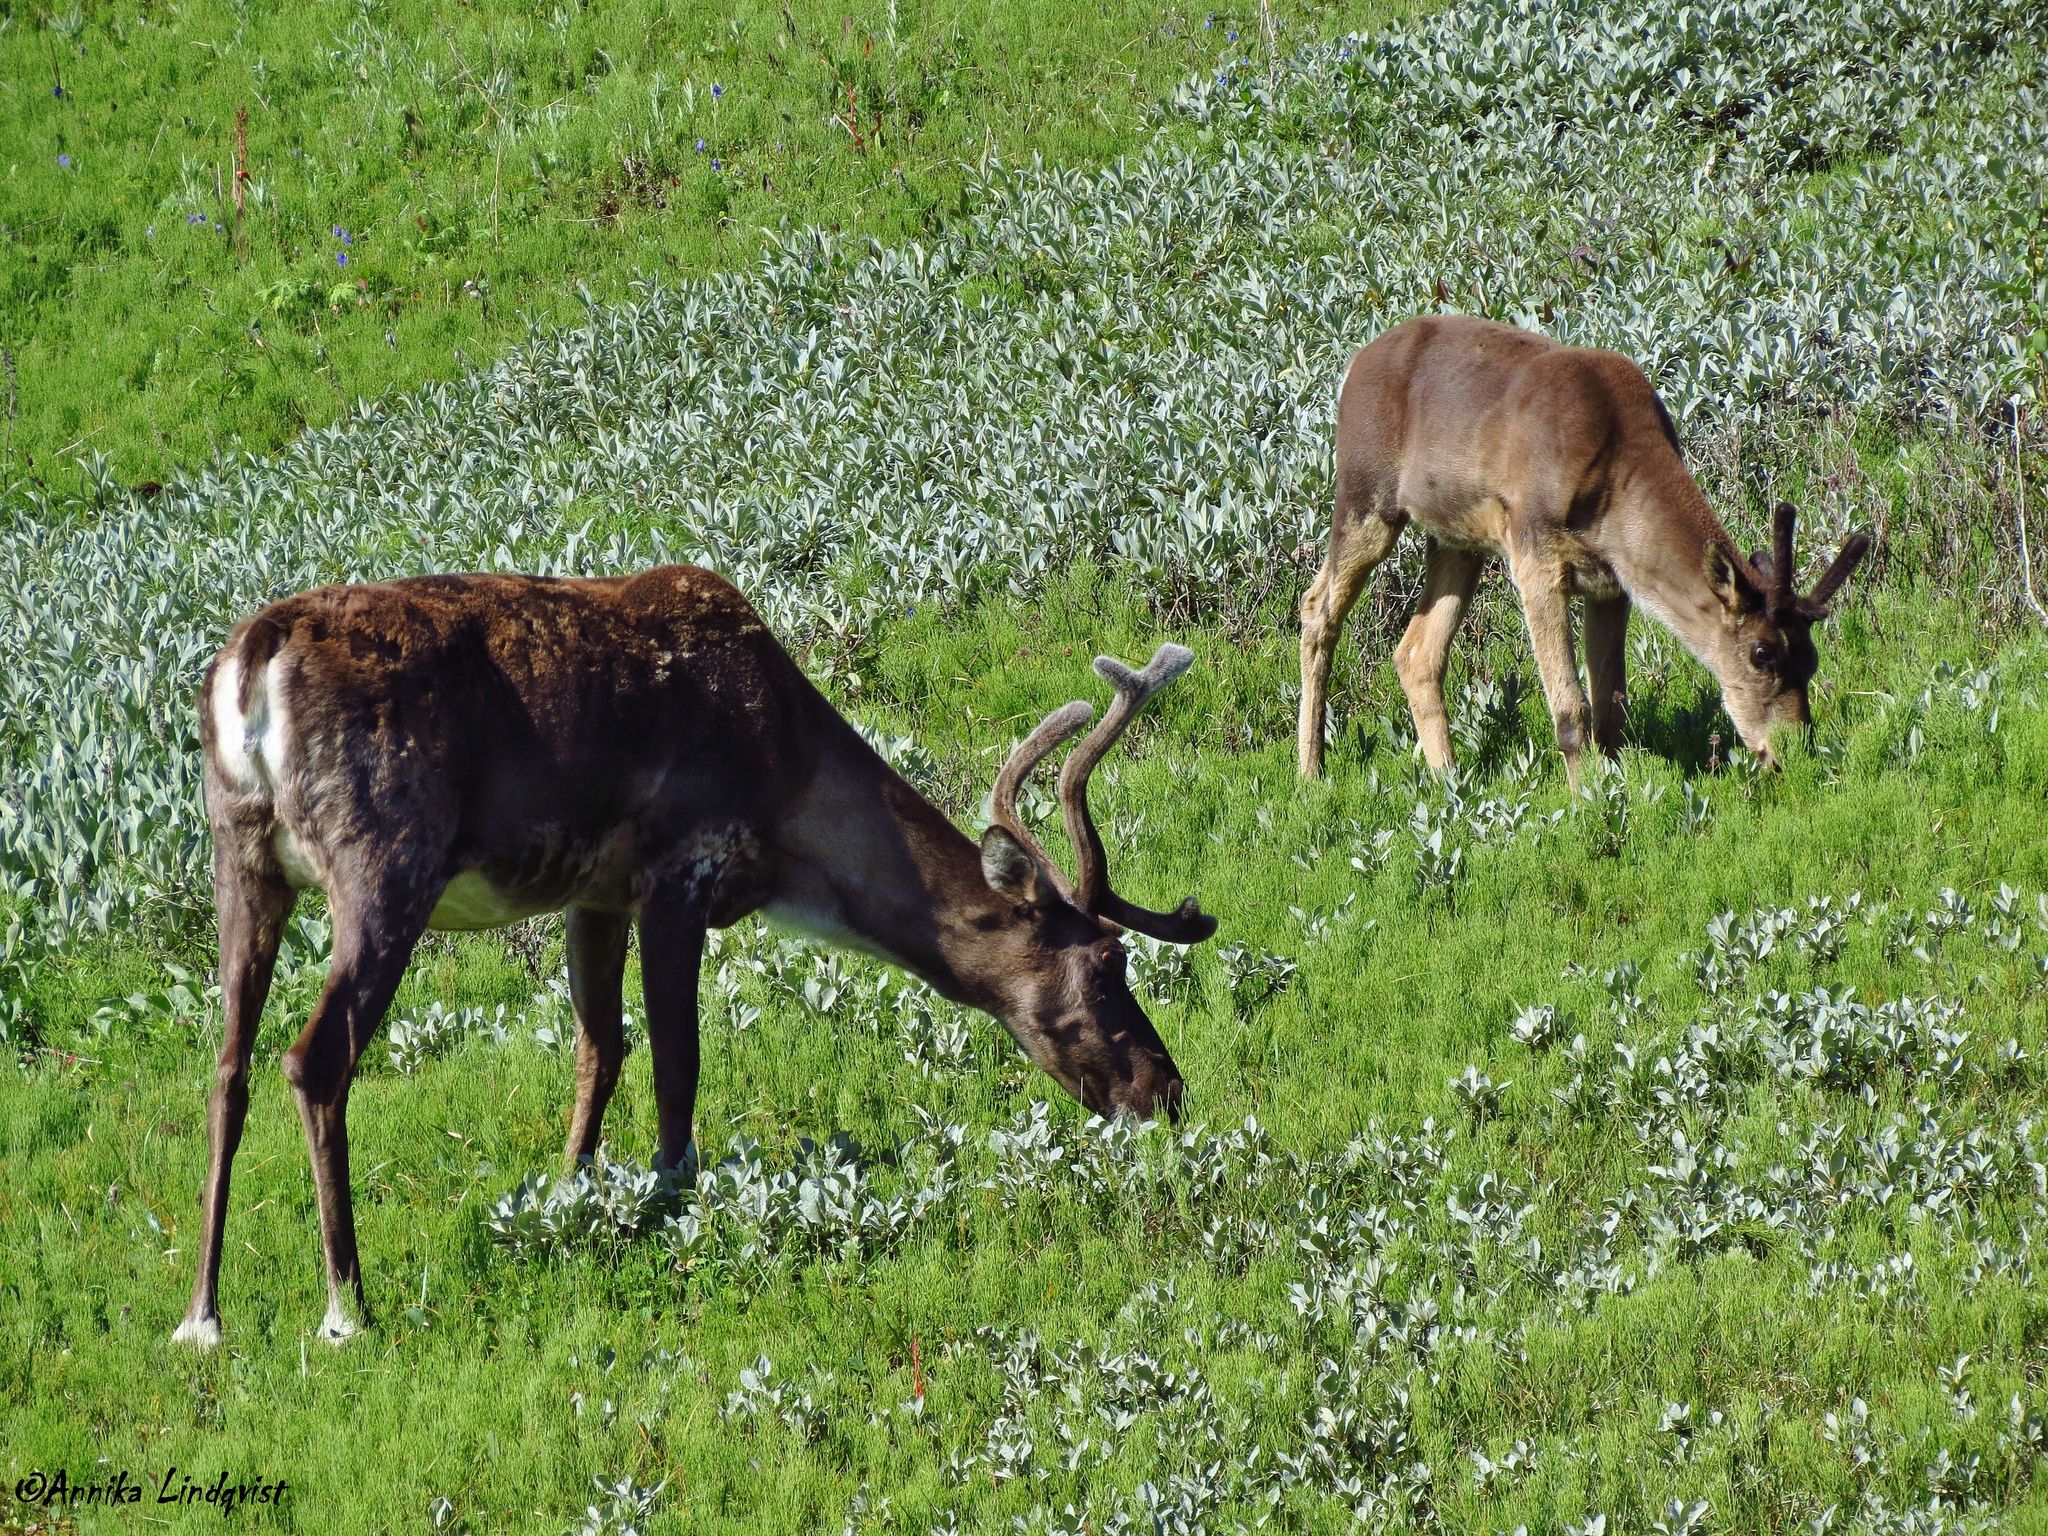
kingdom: Animalia
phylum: Chordata
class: Mammalia
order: Artiodactyla
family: Cervidae
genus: Rangifer
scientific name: Rangifer tarandus
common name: Reindeer
